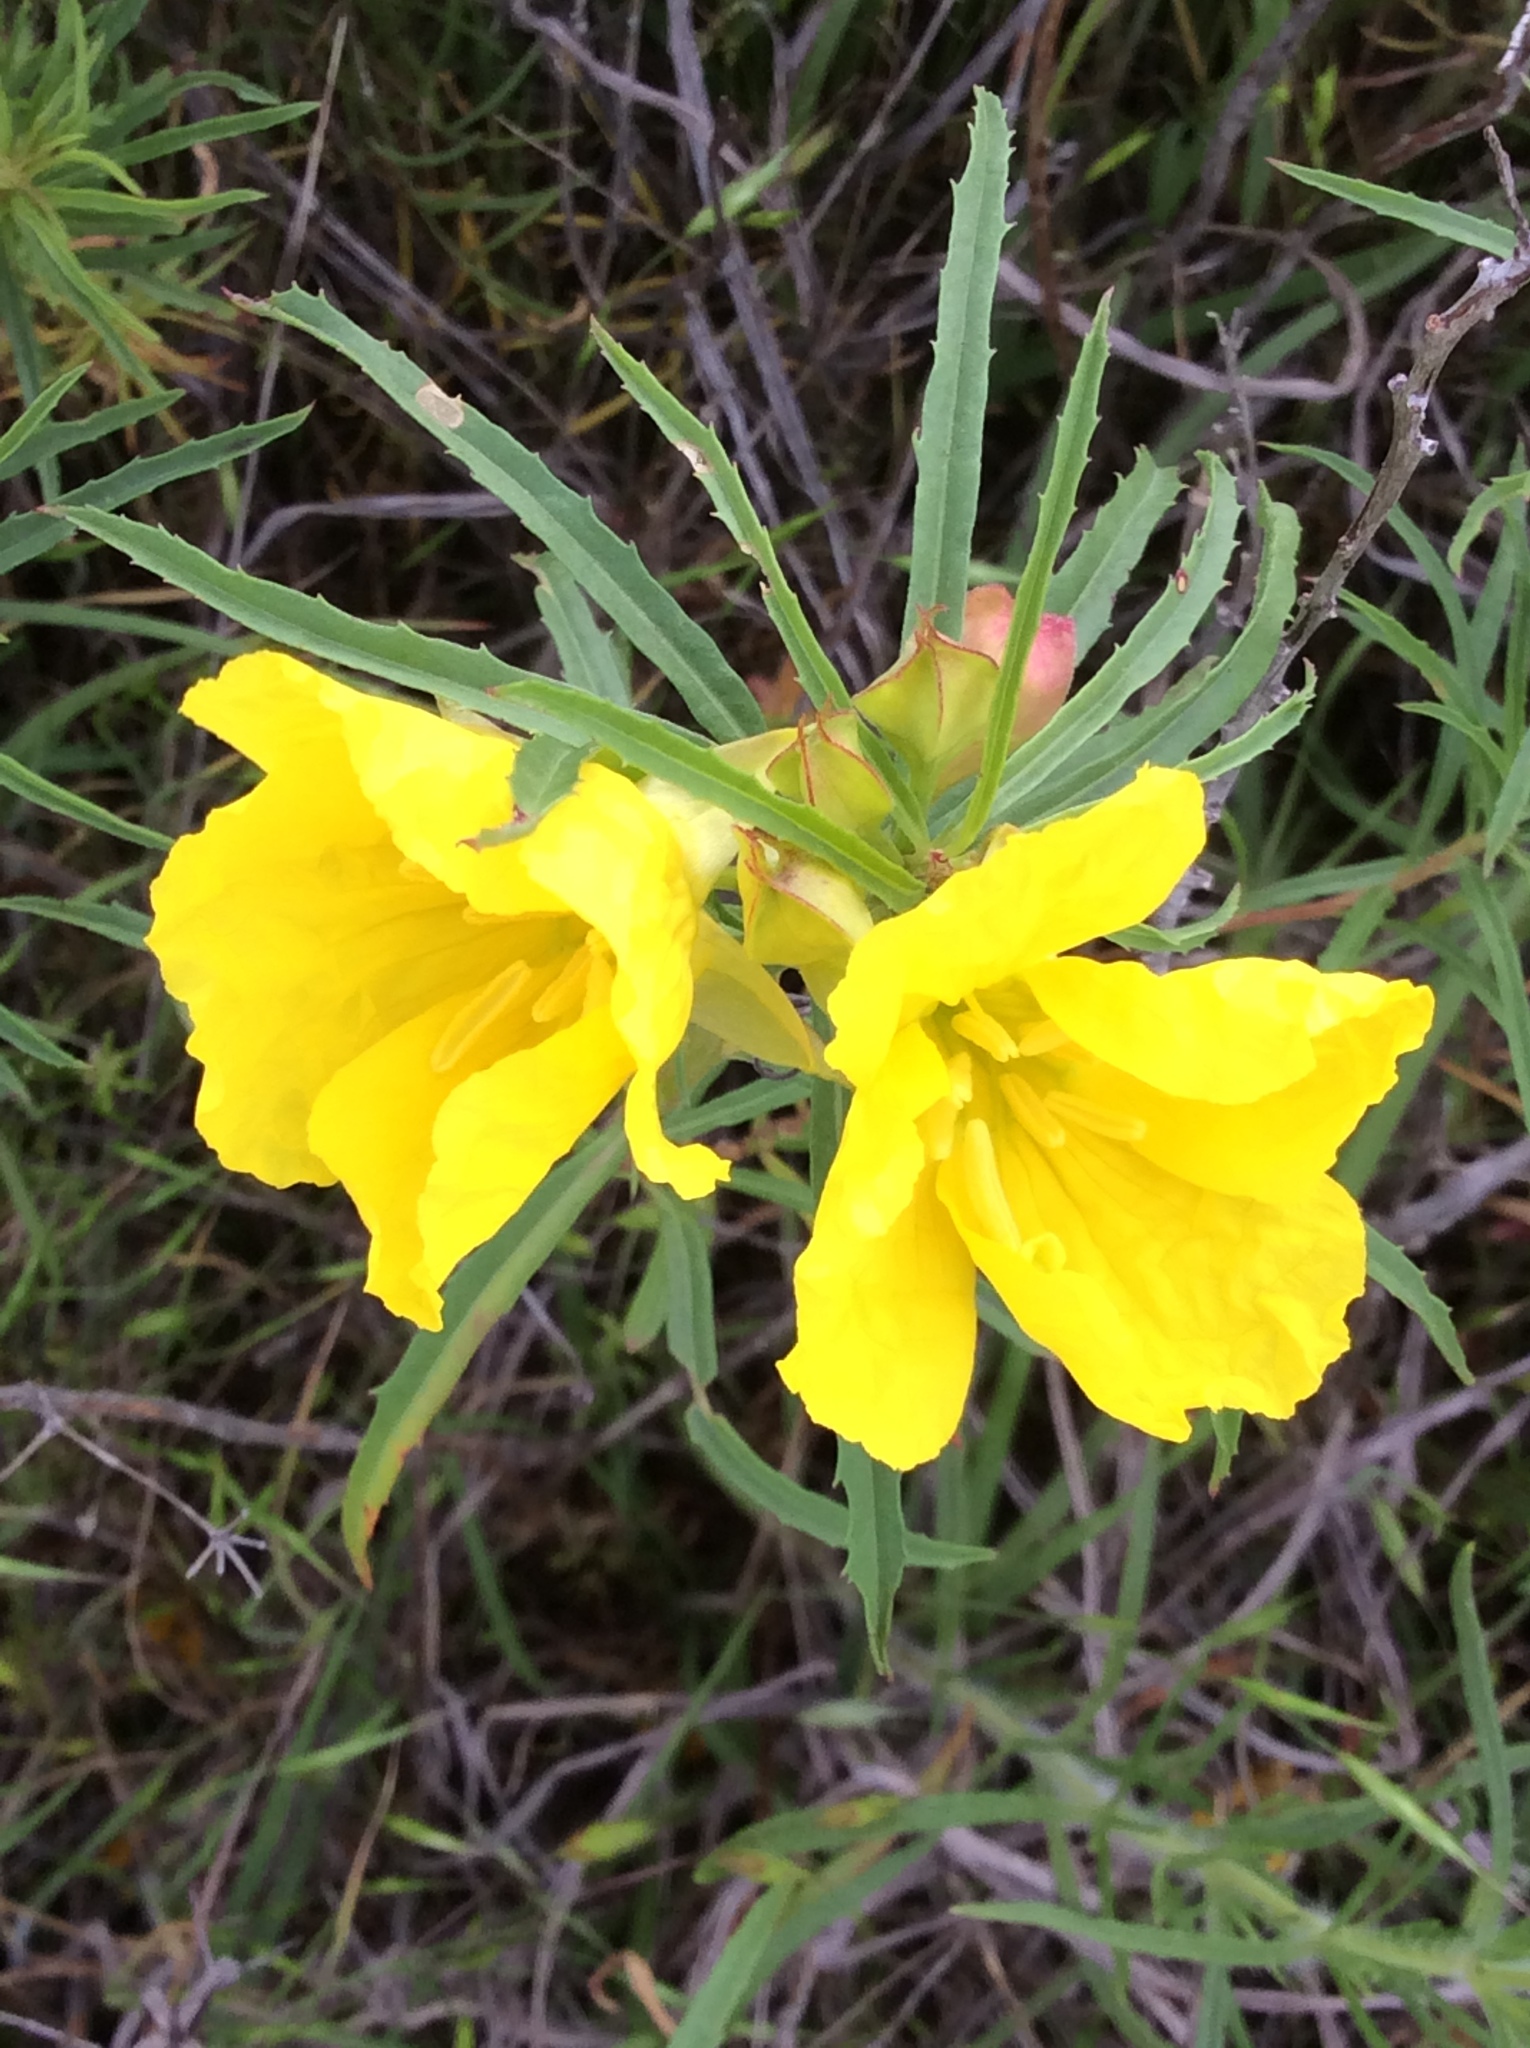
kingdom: Plantae
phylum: Tracheophyta
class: Magnoliopsida
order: Myrtales
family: Onagraceae
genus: Oenothera
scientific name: Oenothera
